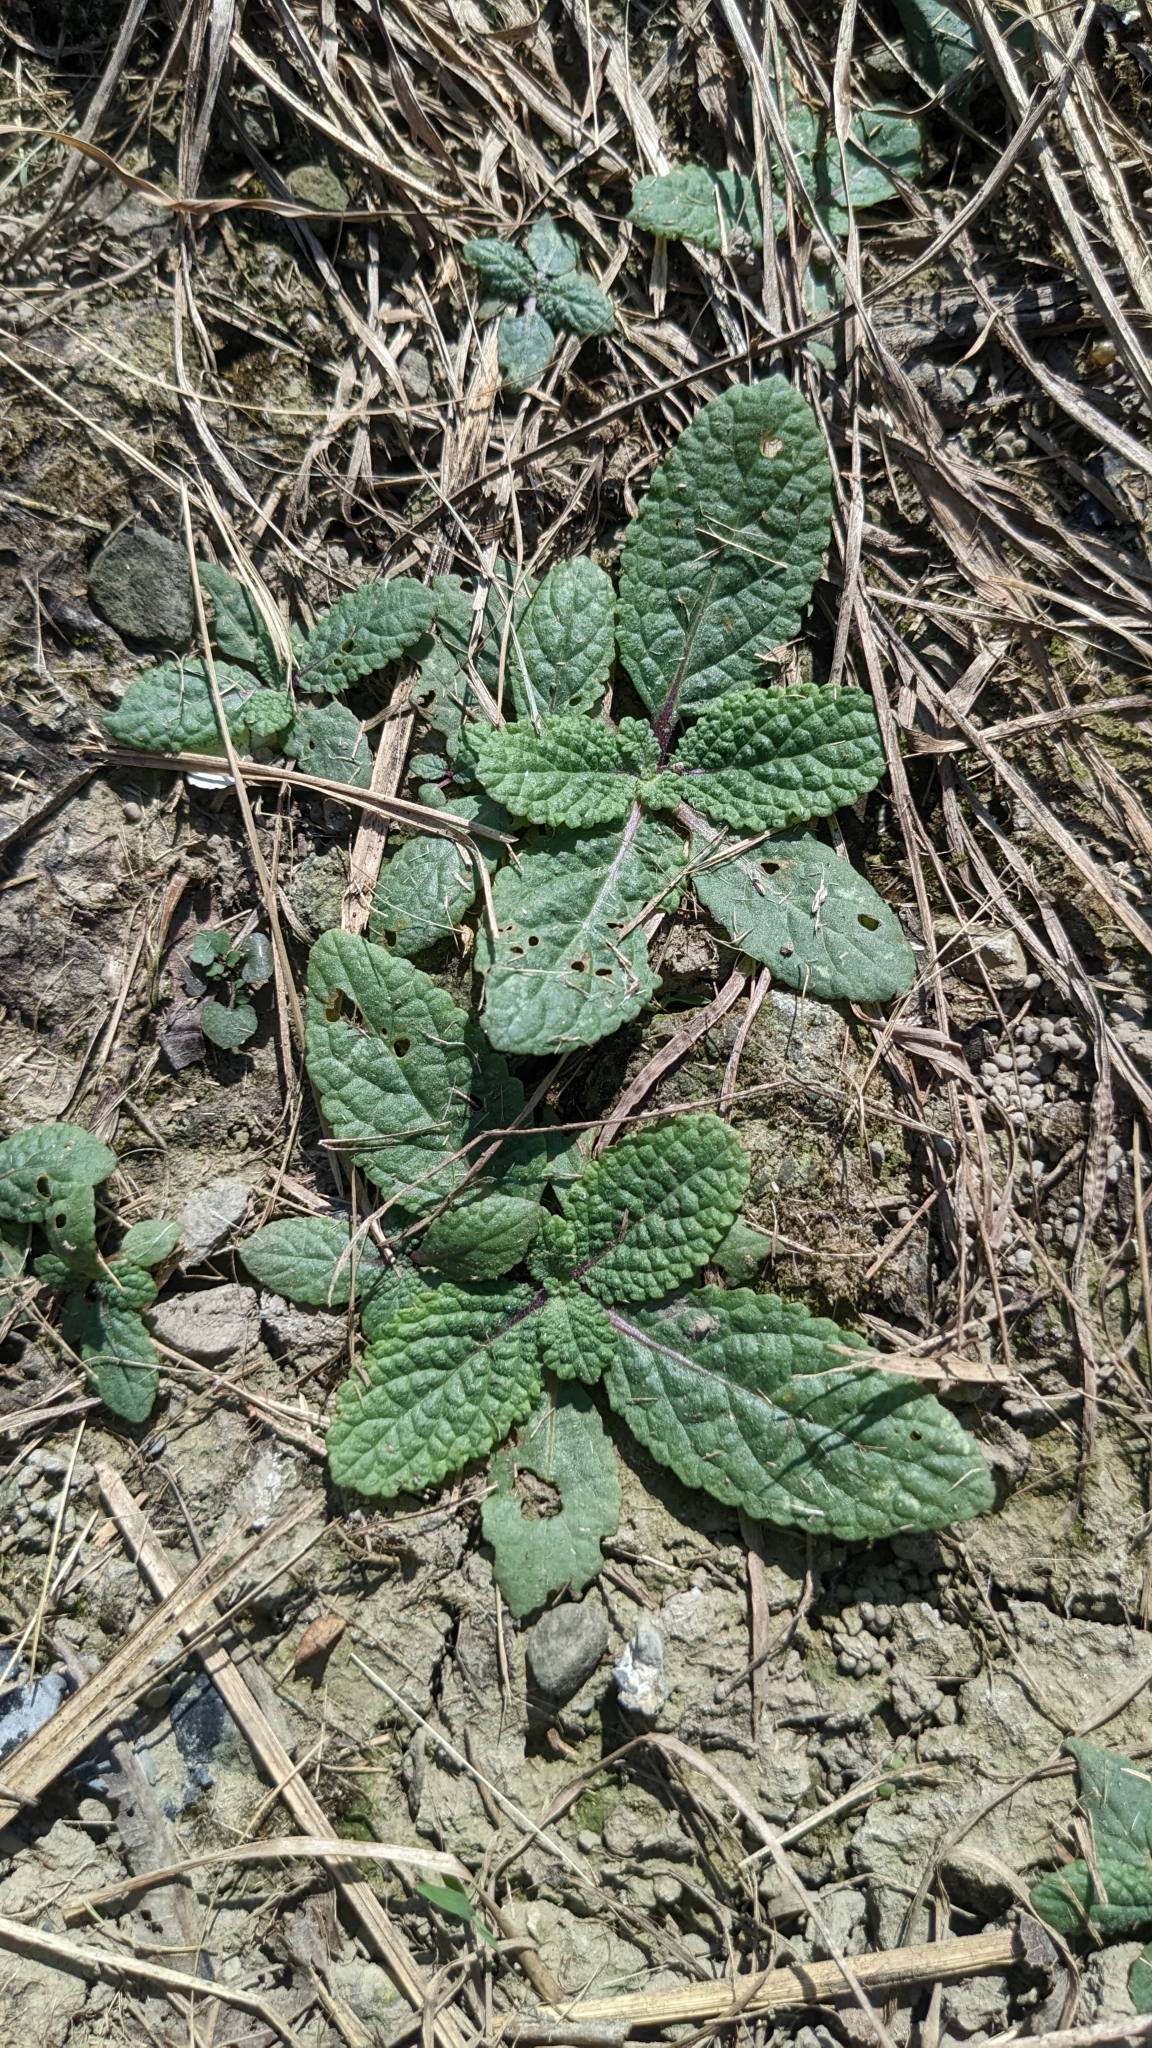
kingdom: Plantae
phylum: Tracheophyta
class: Magnoliopsida
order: Lamiales
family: Lamiaceae
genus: Salvia
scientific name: Salvia plebeia
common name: Australian sage
